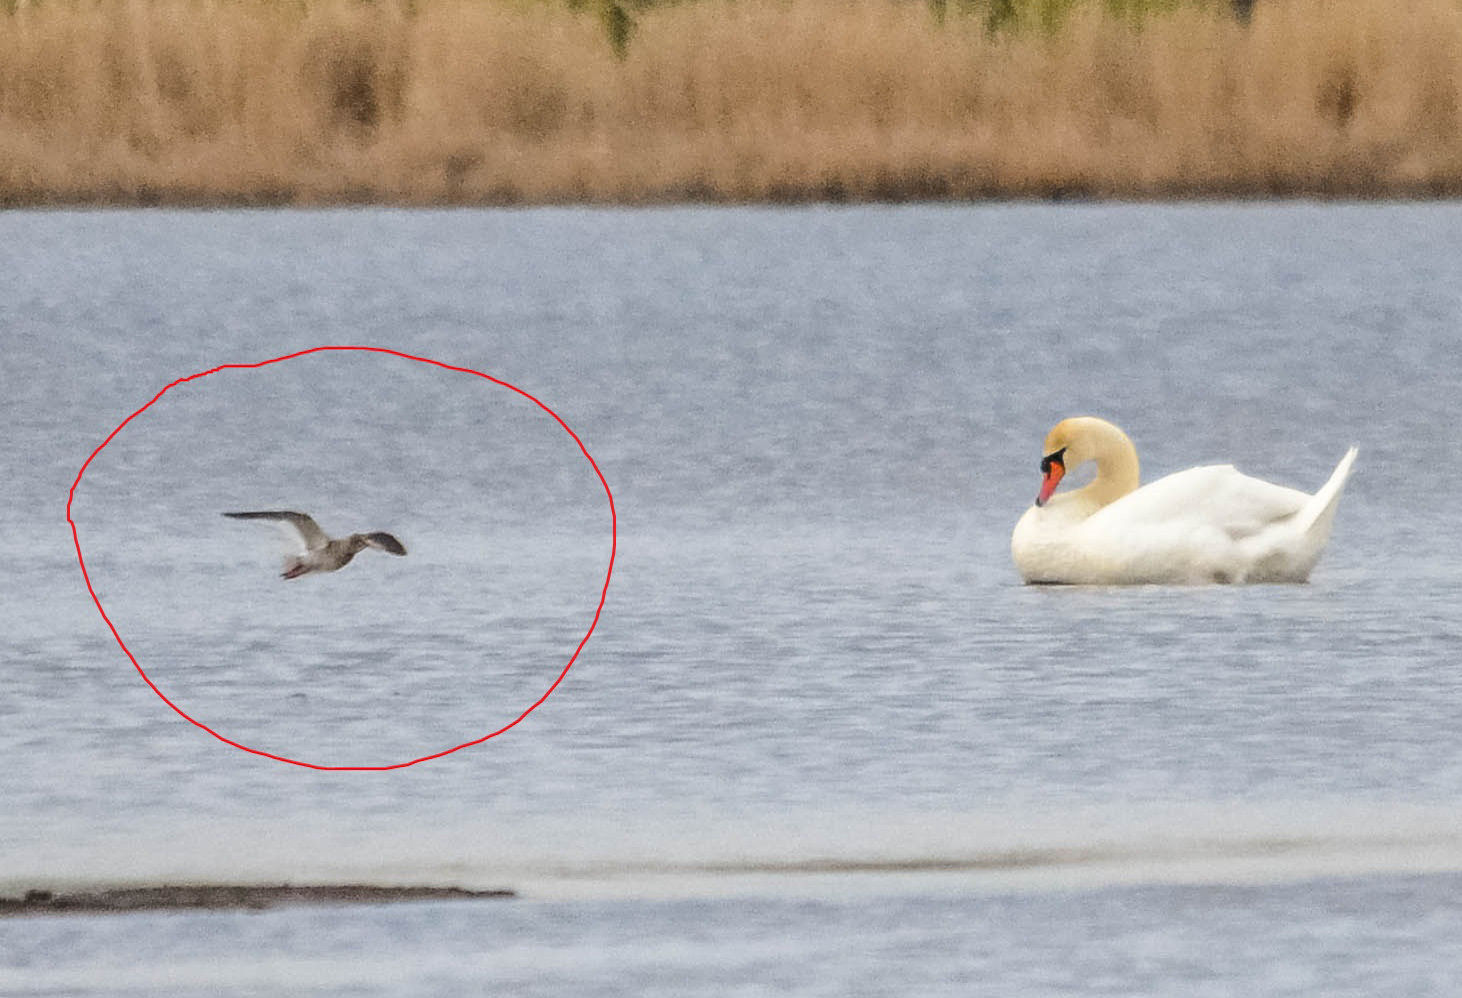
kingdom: Animalia
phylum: Chordata
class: Aves
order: Charadriiformes
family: Scolopacidae
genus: Tringa
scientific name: Tringa totanus
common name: Common redshank
